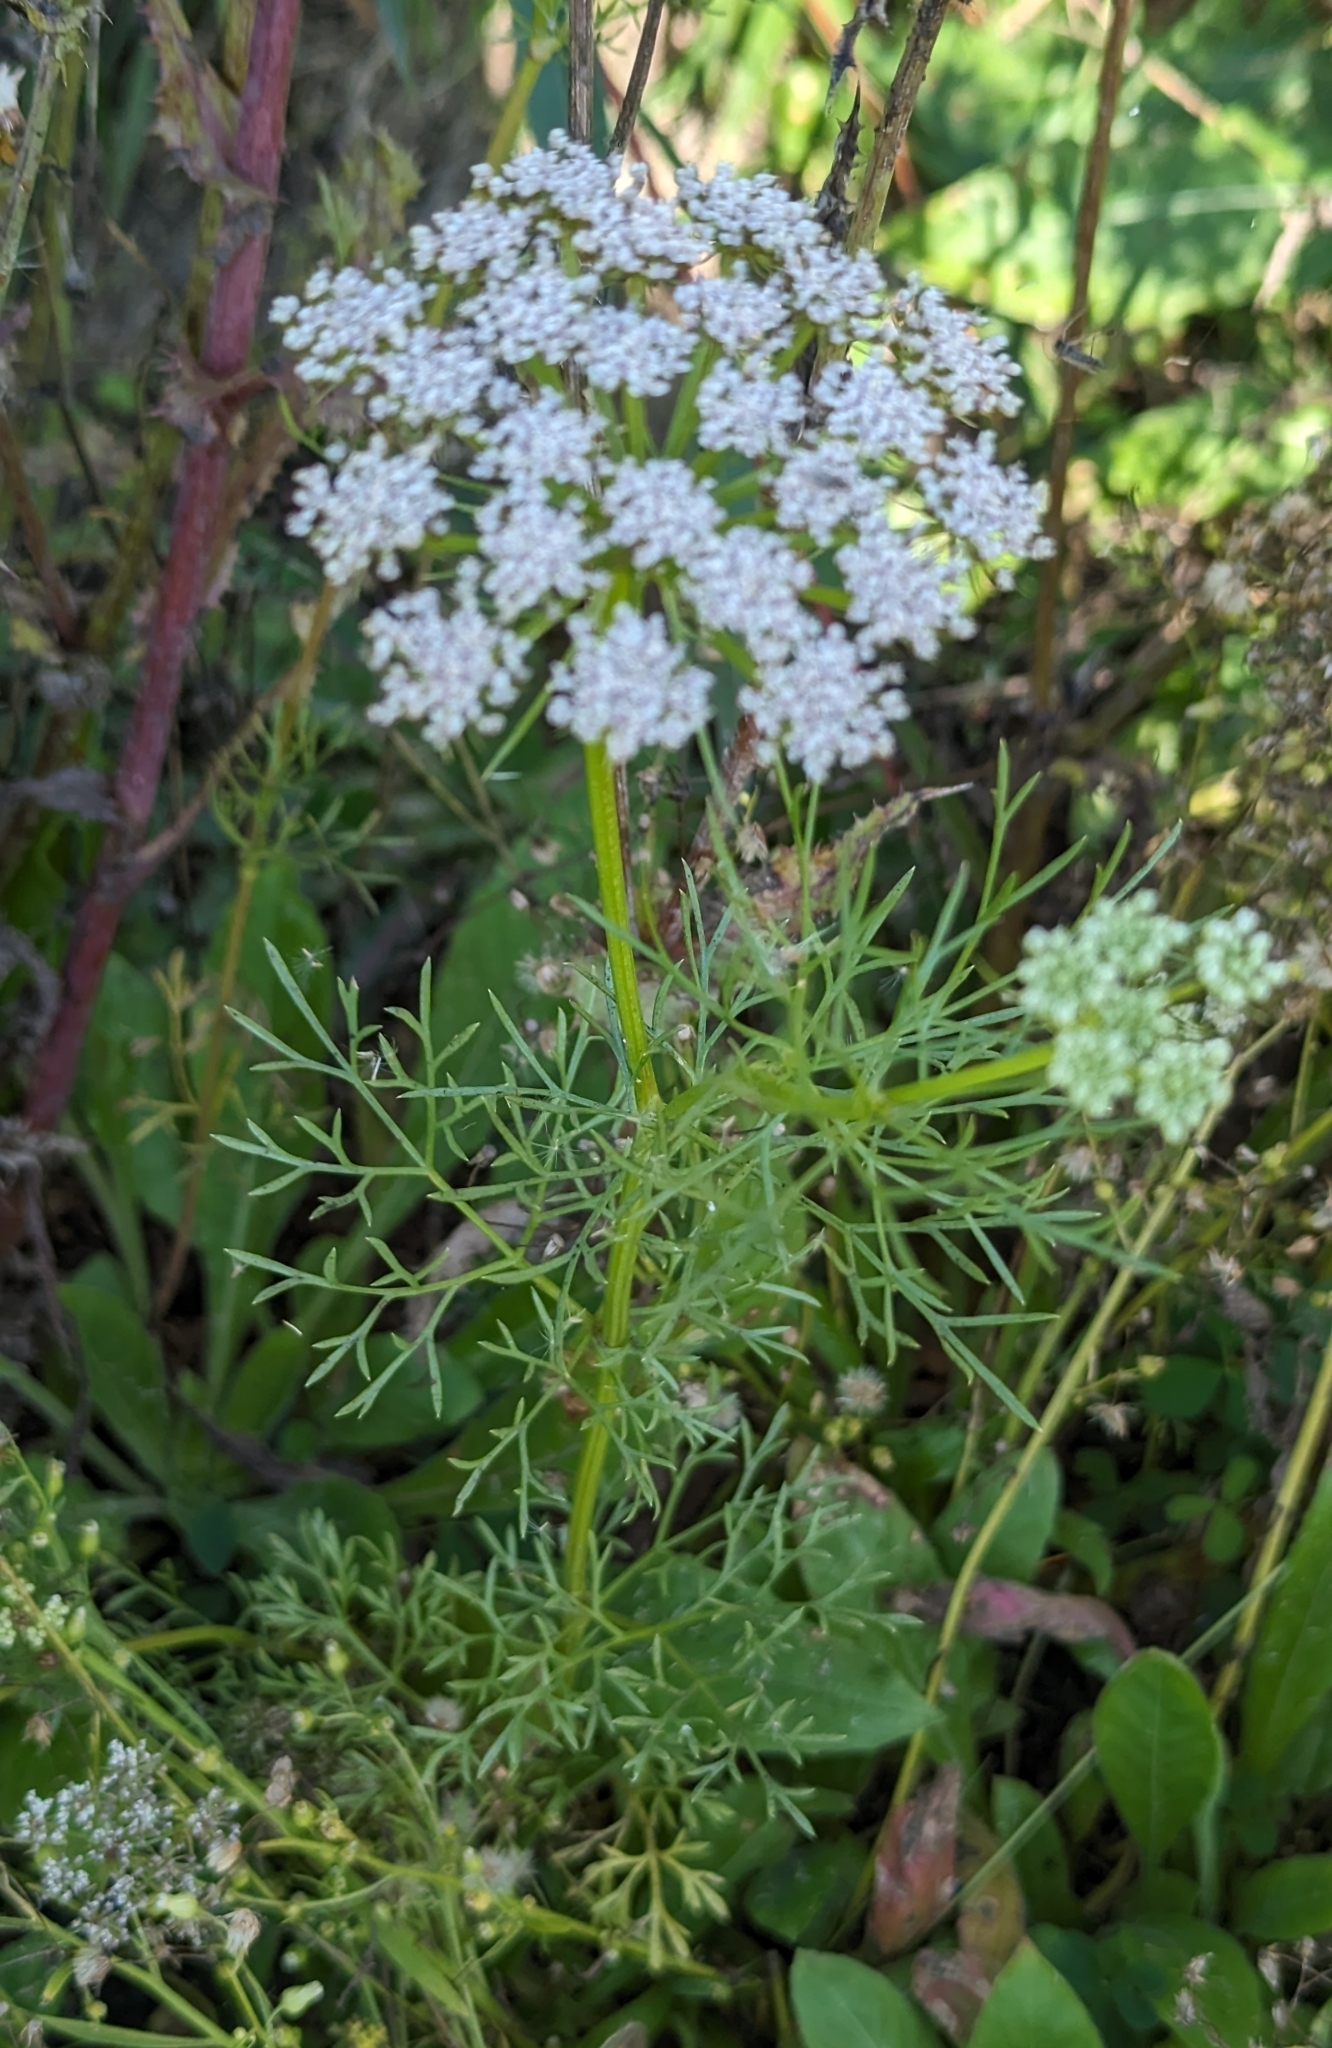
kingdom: Plantae
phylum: Tracheophyta
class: Magnoliopsida
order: Apiales
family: Apiaceae
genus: Daucus
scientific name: Daucus carota
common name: Wild carrot
